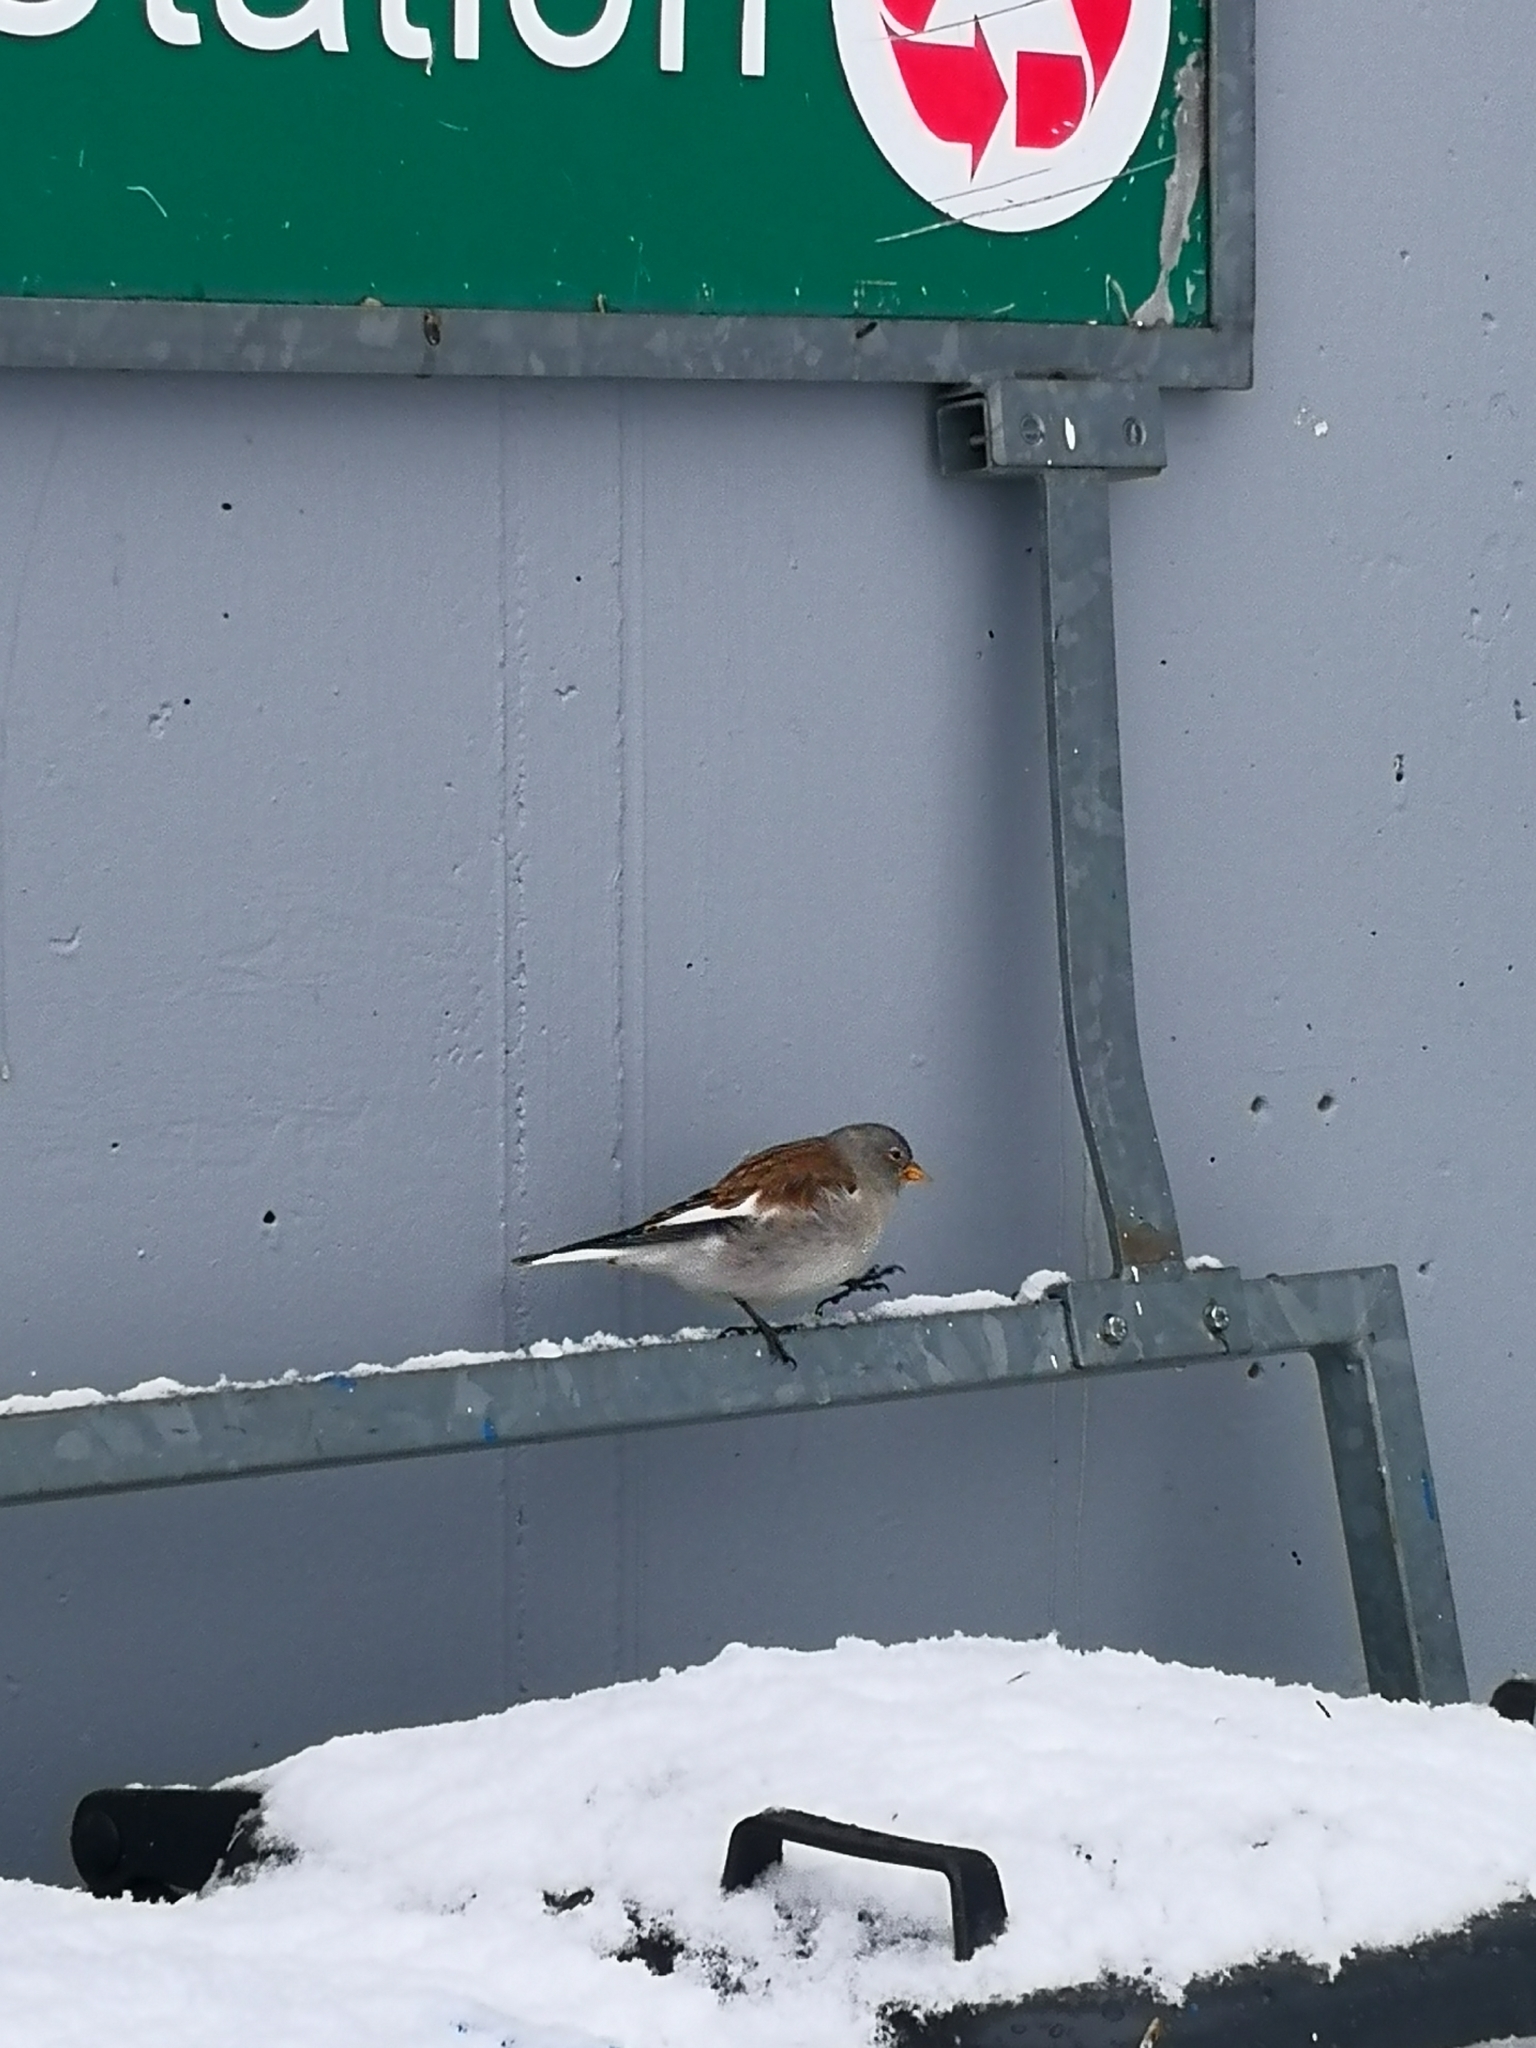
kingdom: Animalia
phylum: Chordata
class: Aves
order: Passeriformes
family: Passeridae
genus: Montifringilla
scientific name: Montifringilla nivalis
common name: White-winged snowfinch
